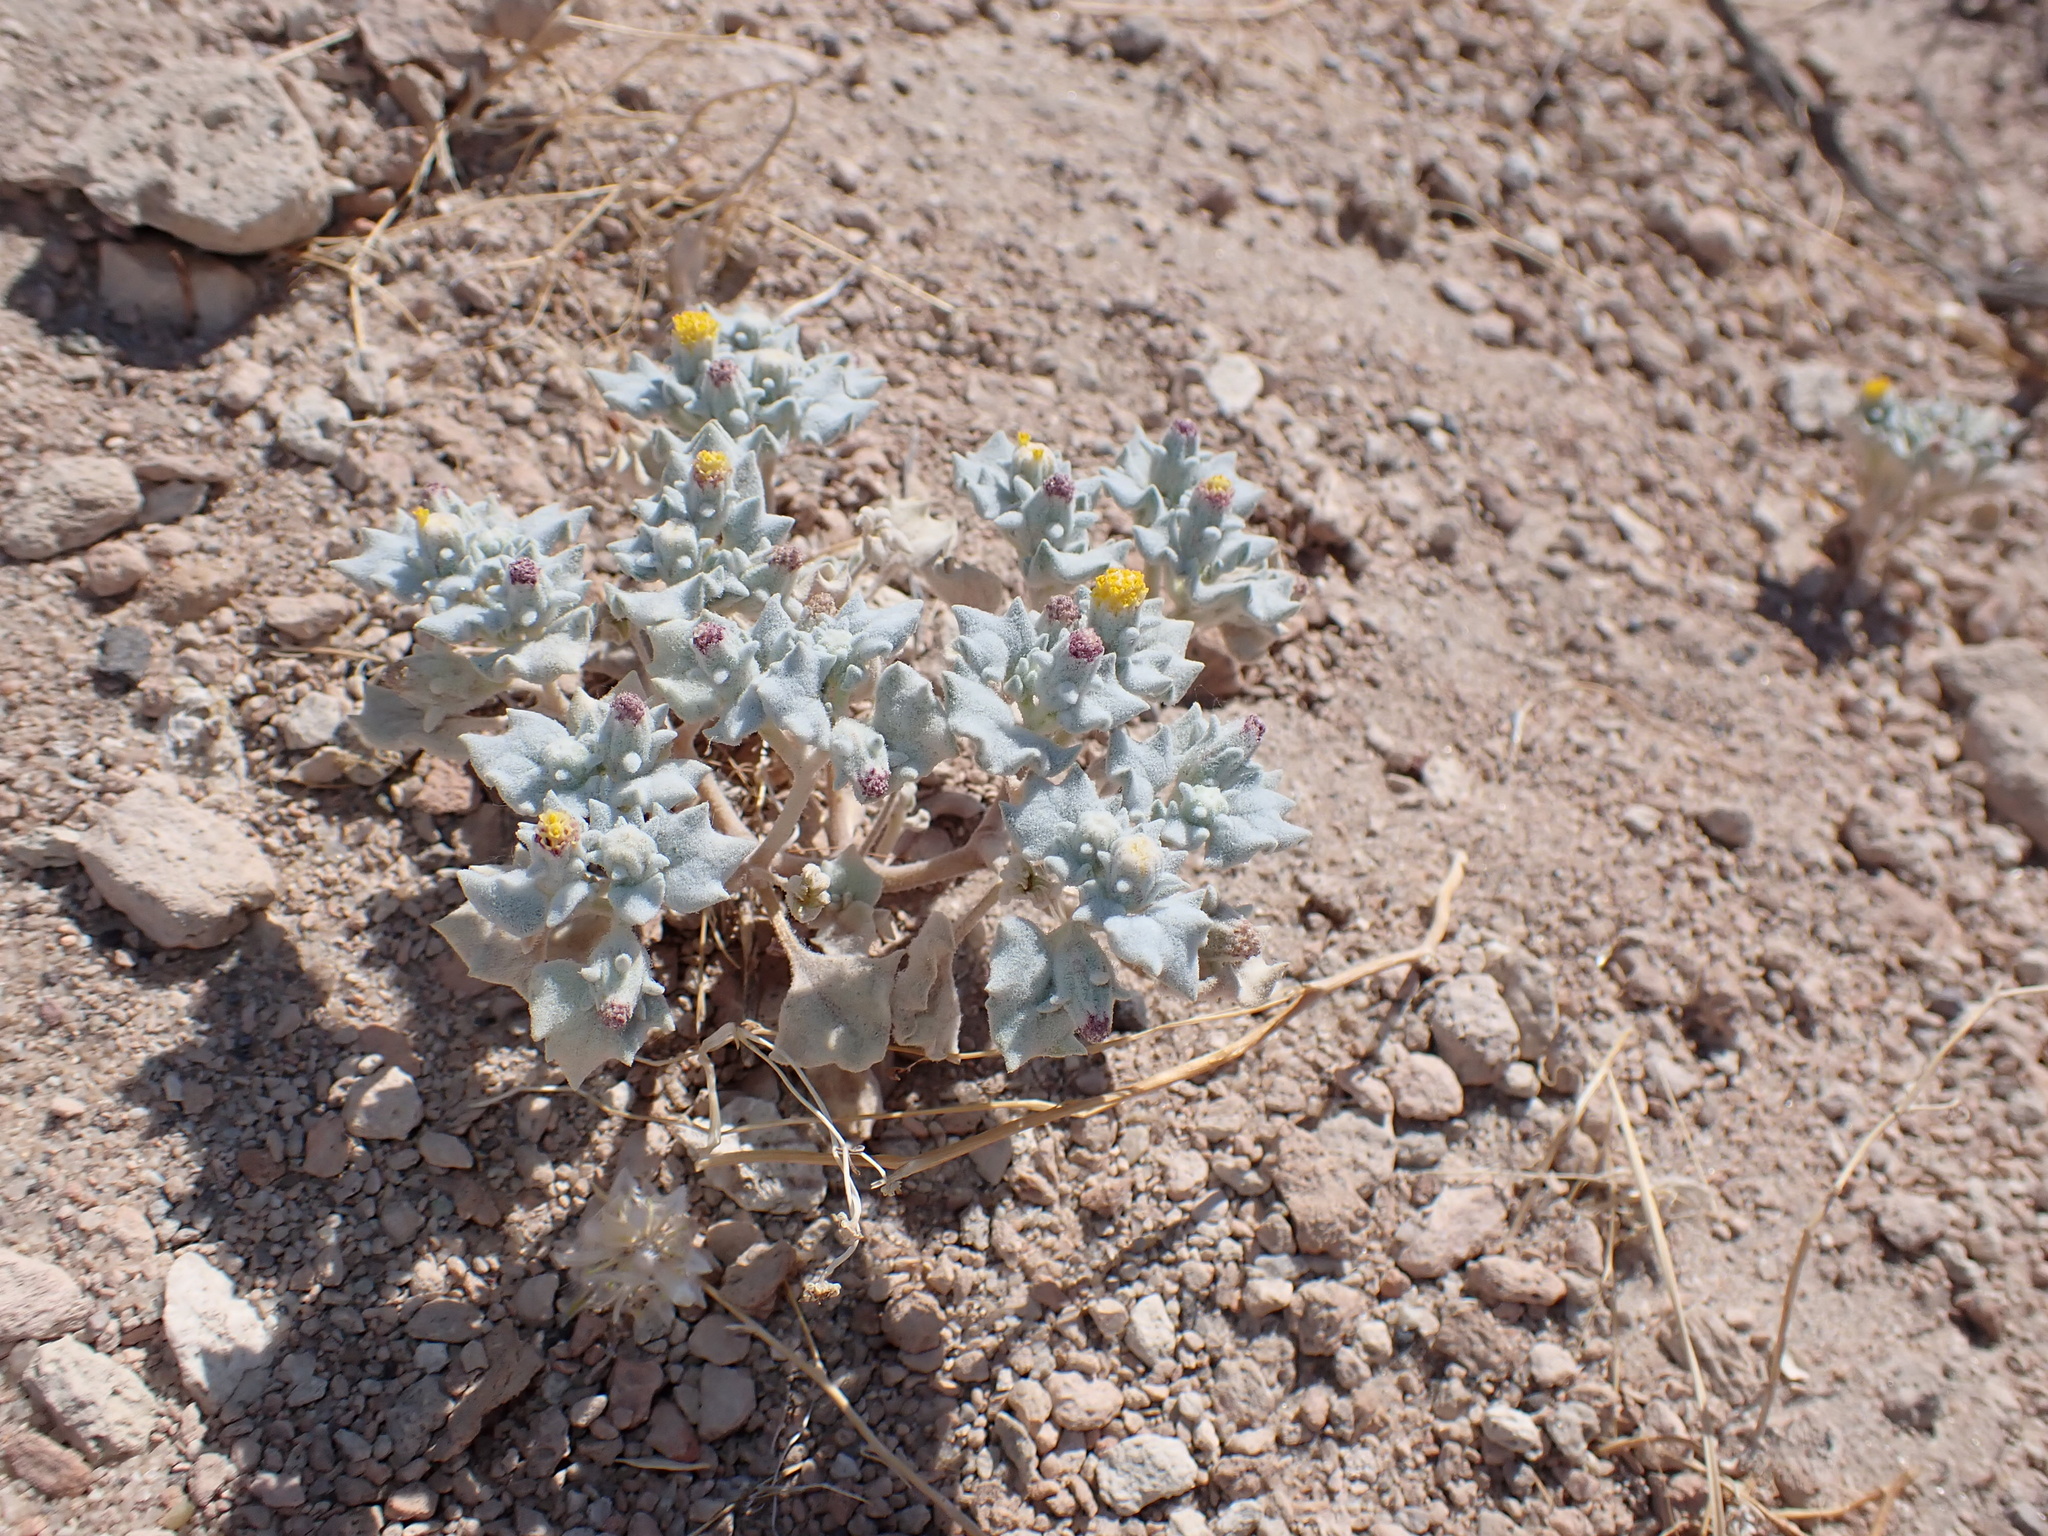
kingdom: Plantae
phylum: Tracheophyta
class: Magnoliopsida
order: Asterales
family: Asteraceae
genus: Psathyrotes
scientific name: Psathyrotes annua
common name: Mealy rosettes
